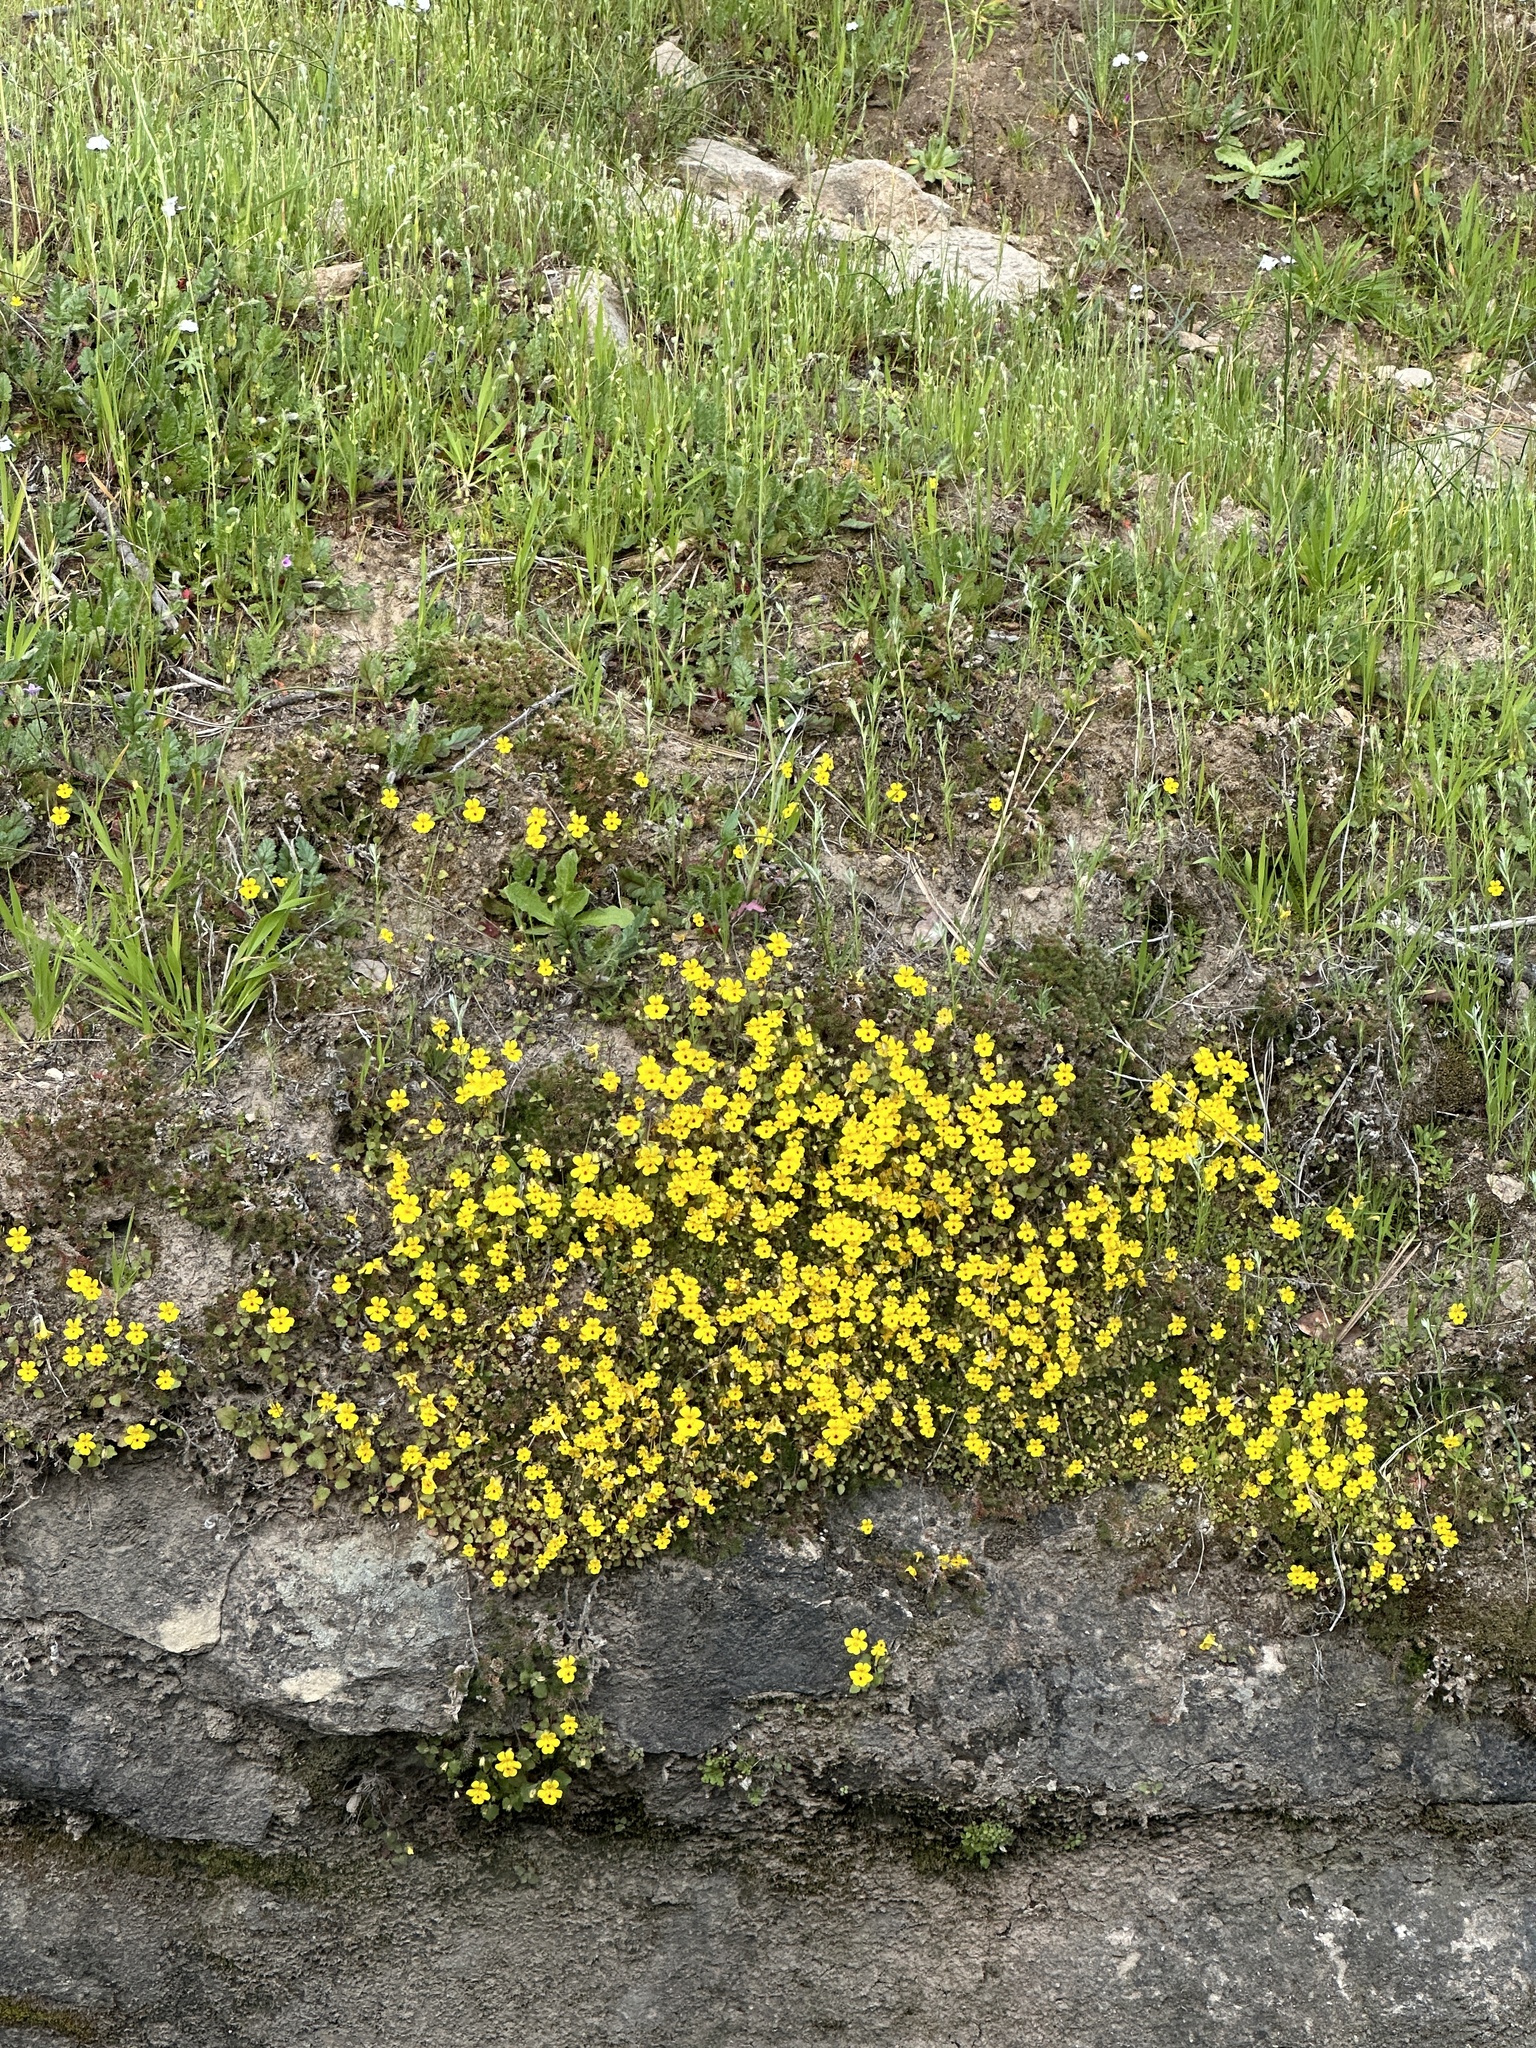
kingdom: Plantae
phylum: Tracheophyta
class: Magnoliopsida
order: Lamiales
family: Phrymaceae
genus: Erythranthe
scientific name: Erythranthe marmorata
